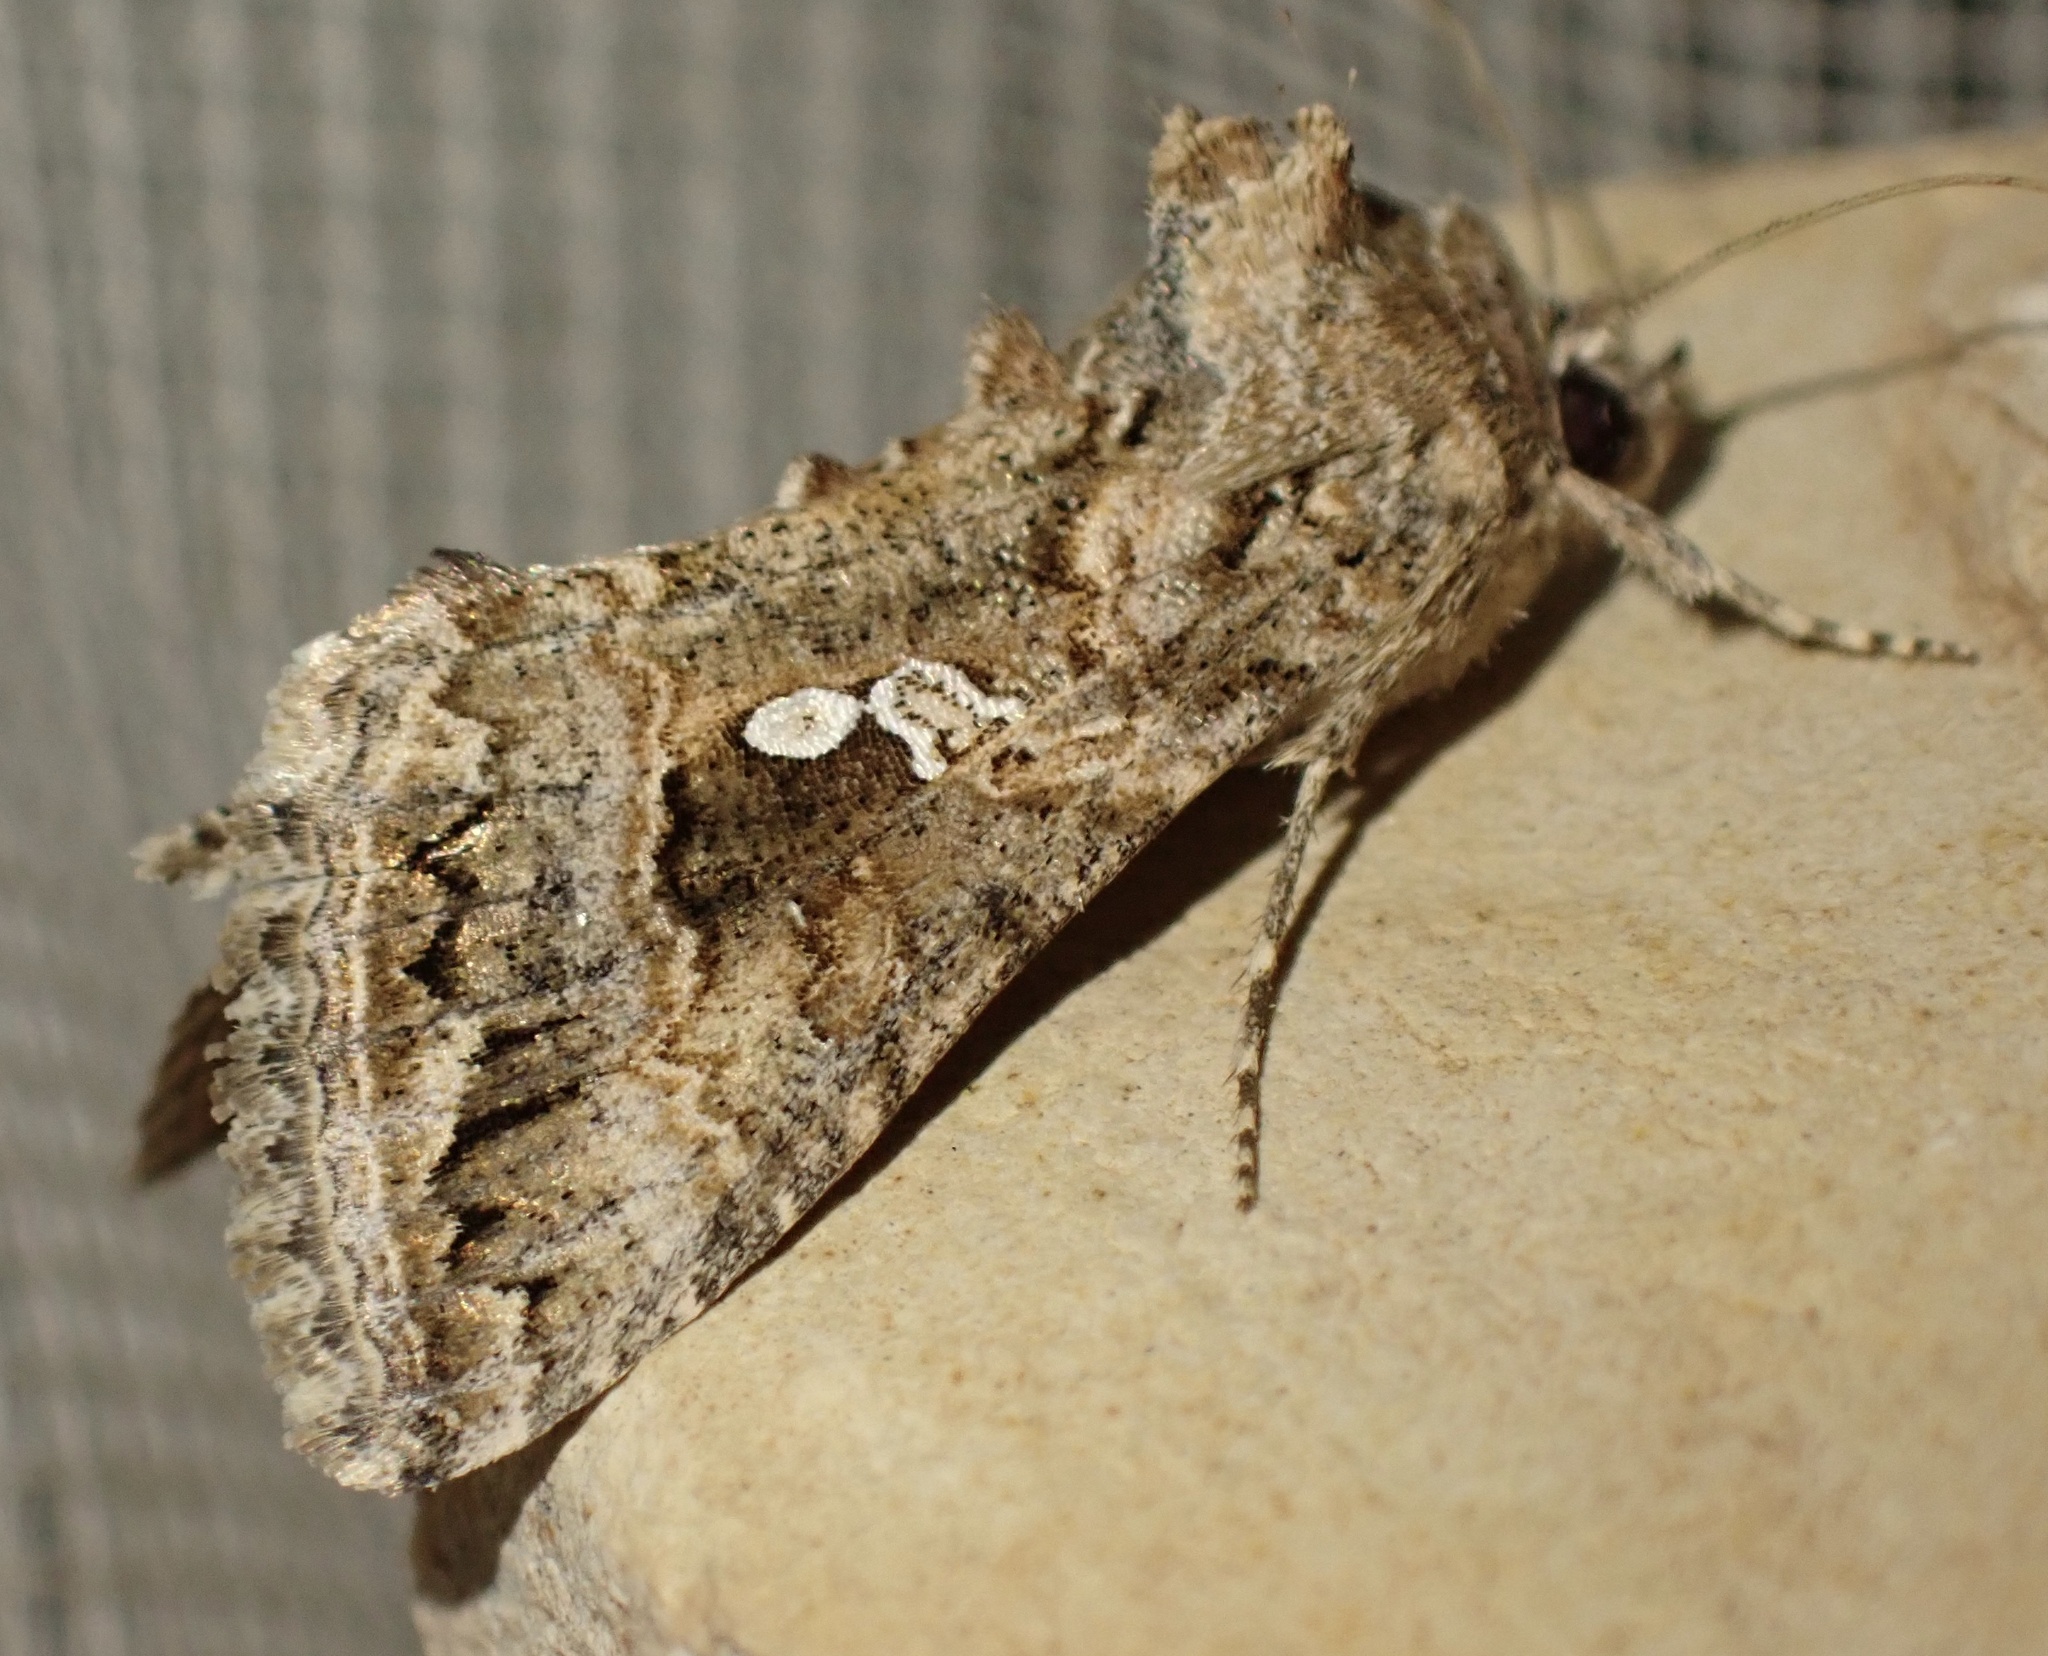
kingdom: Animalia
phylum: Arthropoda
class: Insecta
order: Lepidoptera
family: Noctuidae
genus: Trichoplusia
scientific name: Trichoplusia ni
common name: Ni moth
